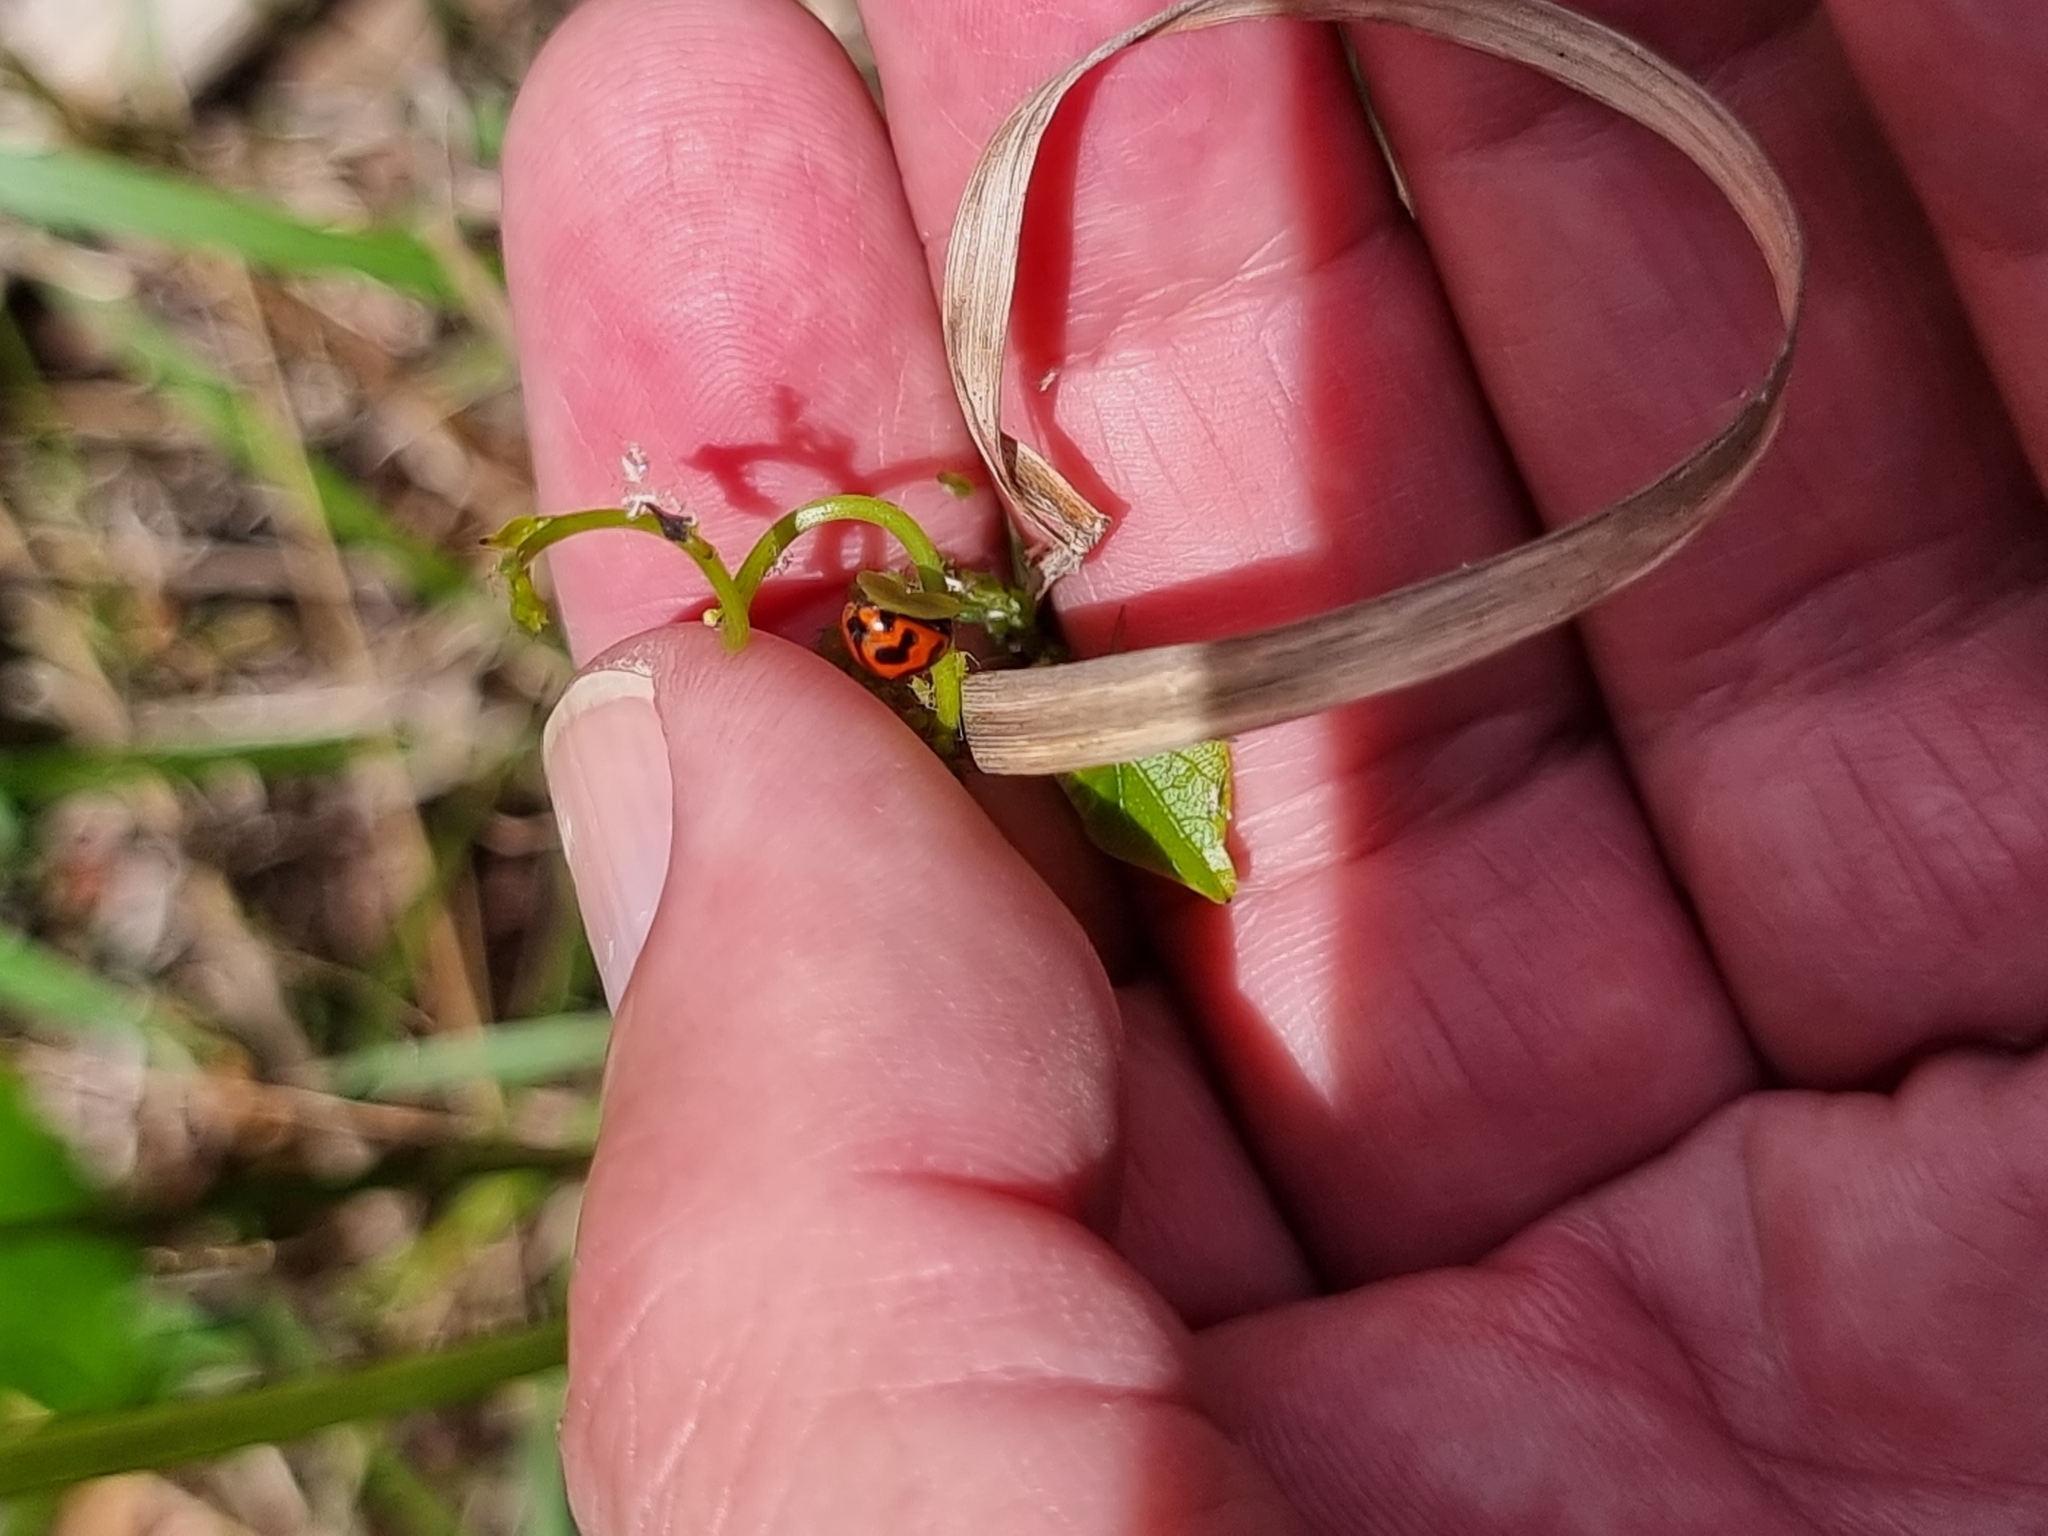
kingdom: Animalia
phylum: Arthropoda
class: Insecta
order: Coleoptera
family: Coccinellidae
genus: Coccinella
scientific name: Coccinella transversalis
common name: Transverse lady beetle
